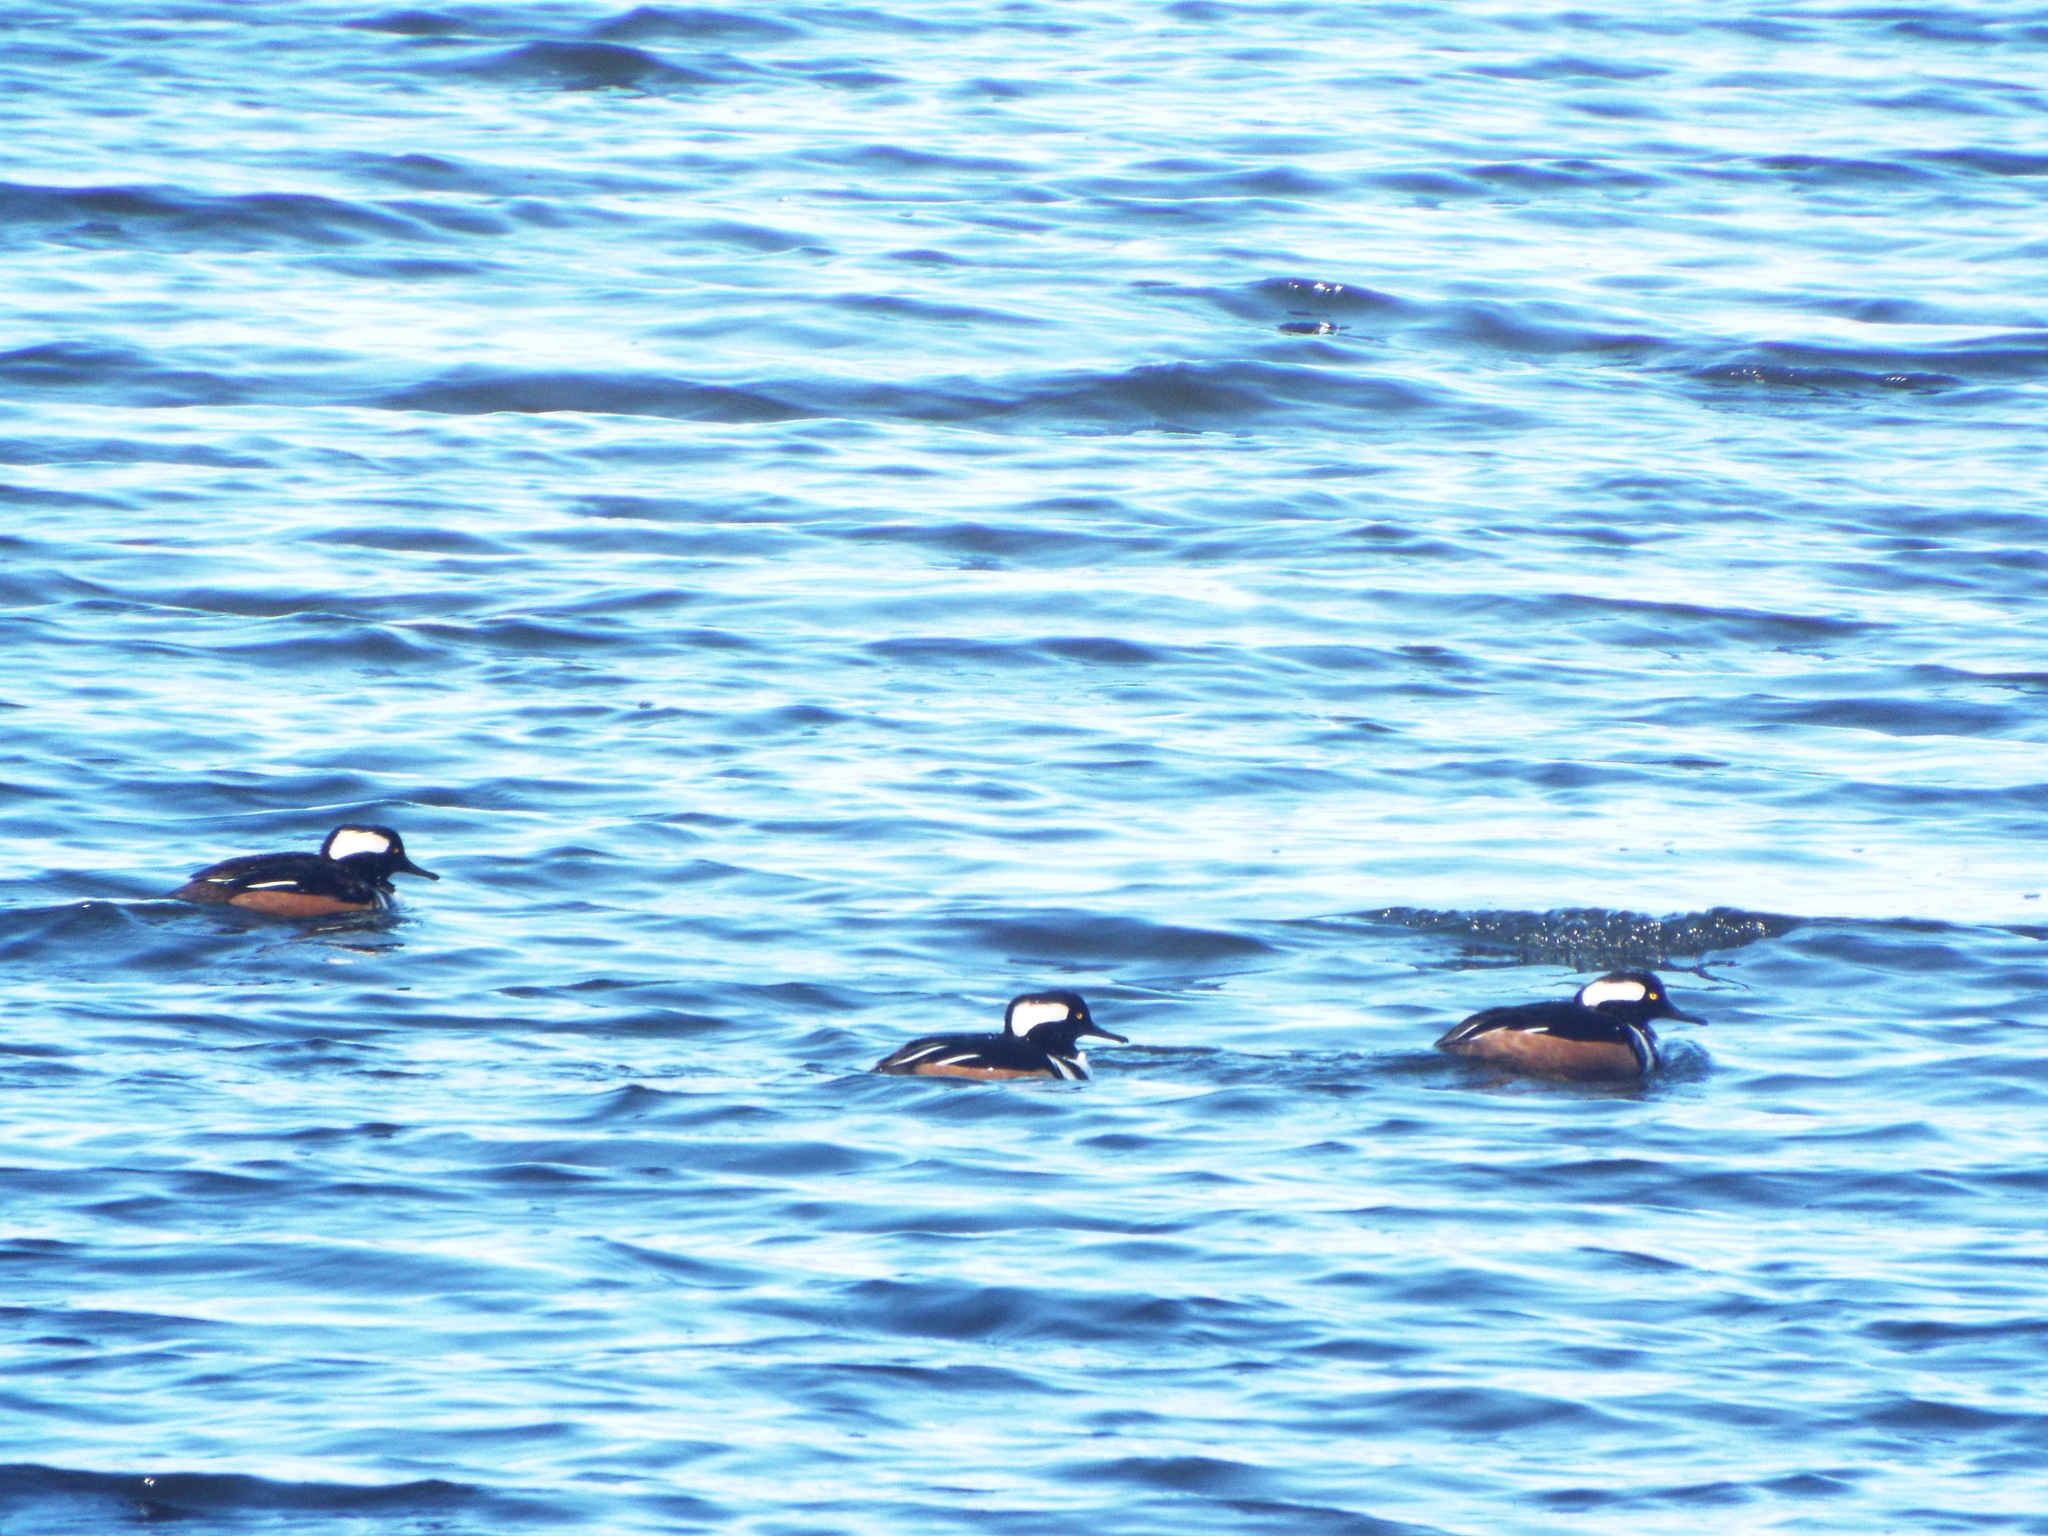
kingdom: Animalia
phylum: Chordata
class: Aves
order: Anseriformes
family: Anatidae
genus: Lophodytes
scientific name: Lophodytes cucullatus
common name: Hooded merganser
